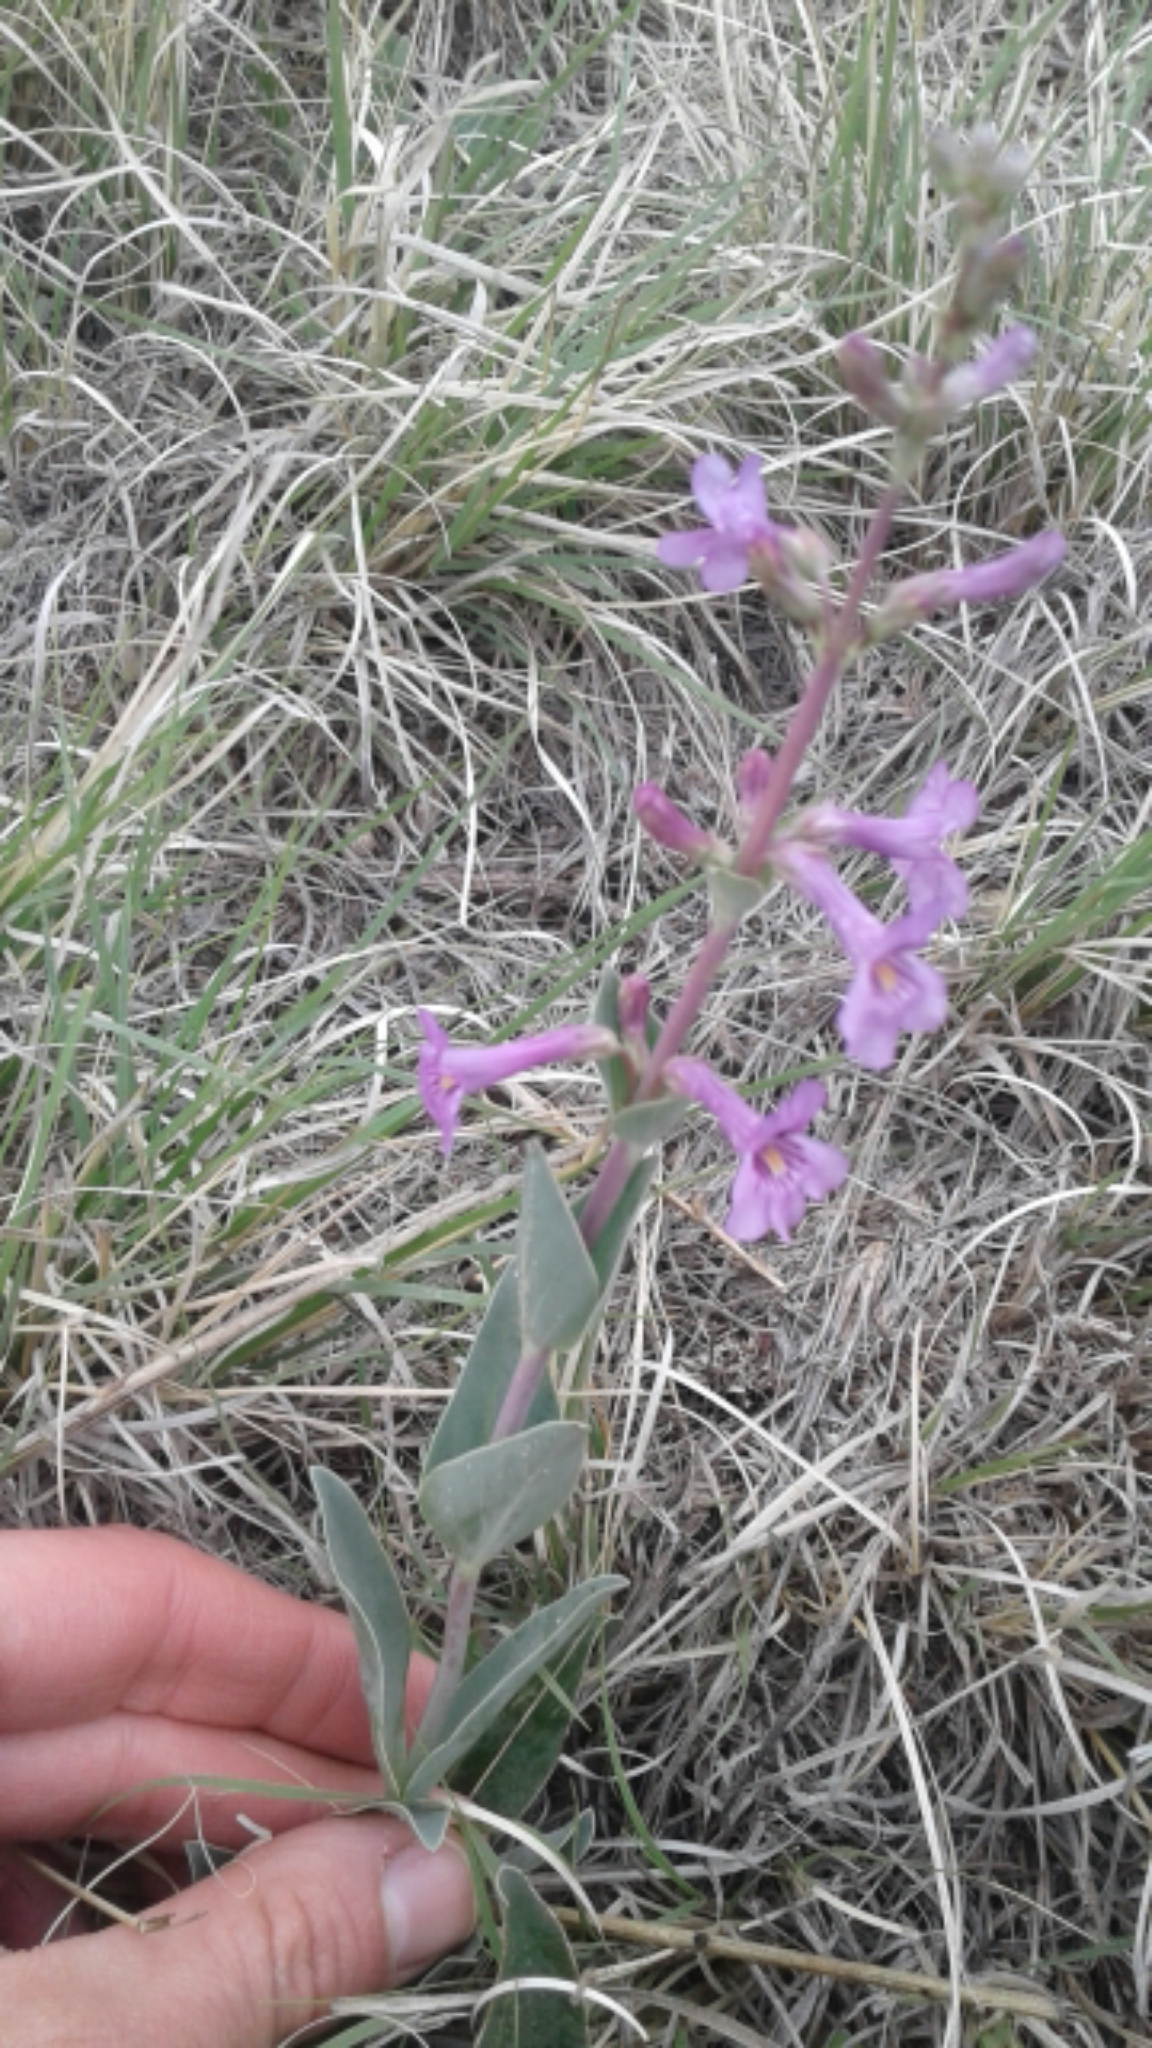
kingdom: Plantae
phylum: Tracheophyta
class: Magnoliopsida
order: Lamiales
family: Plantaginaceae
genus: Penstemon
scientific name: Penstemon fendleri
